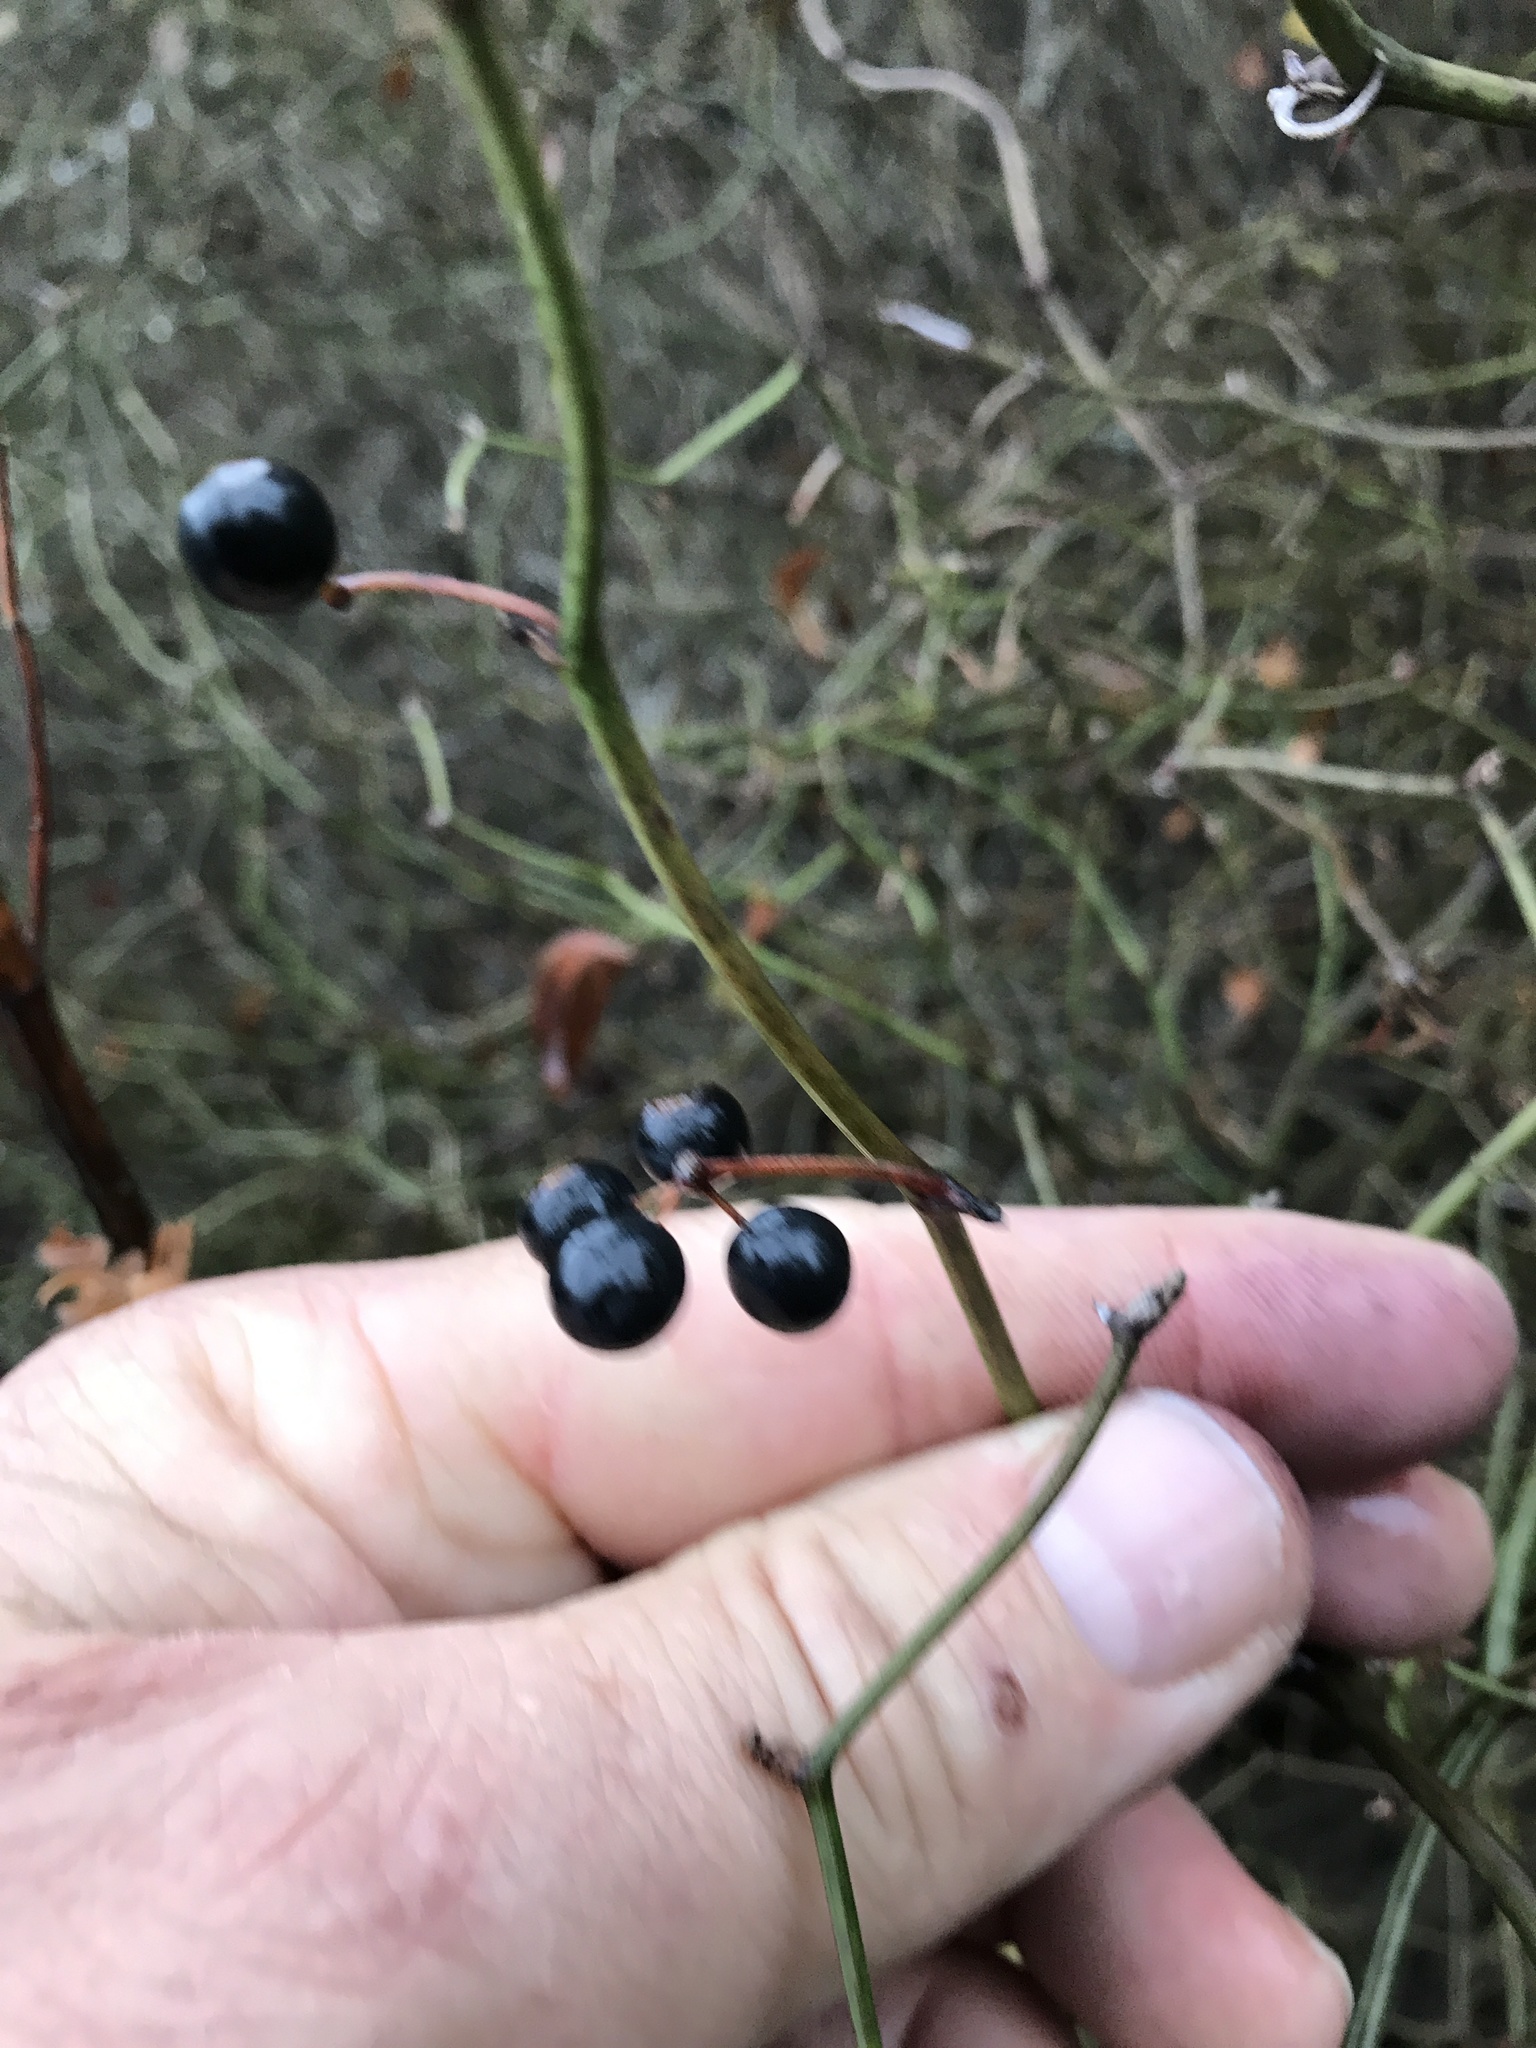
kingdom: Plantae
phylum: Tracheophyta
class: Liliopsida
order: Liliales
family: Smilacaceae
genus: Smilax
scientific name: Smilax bona-nox
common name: Catbrier
